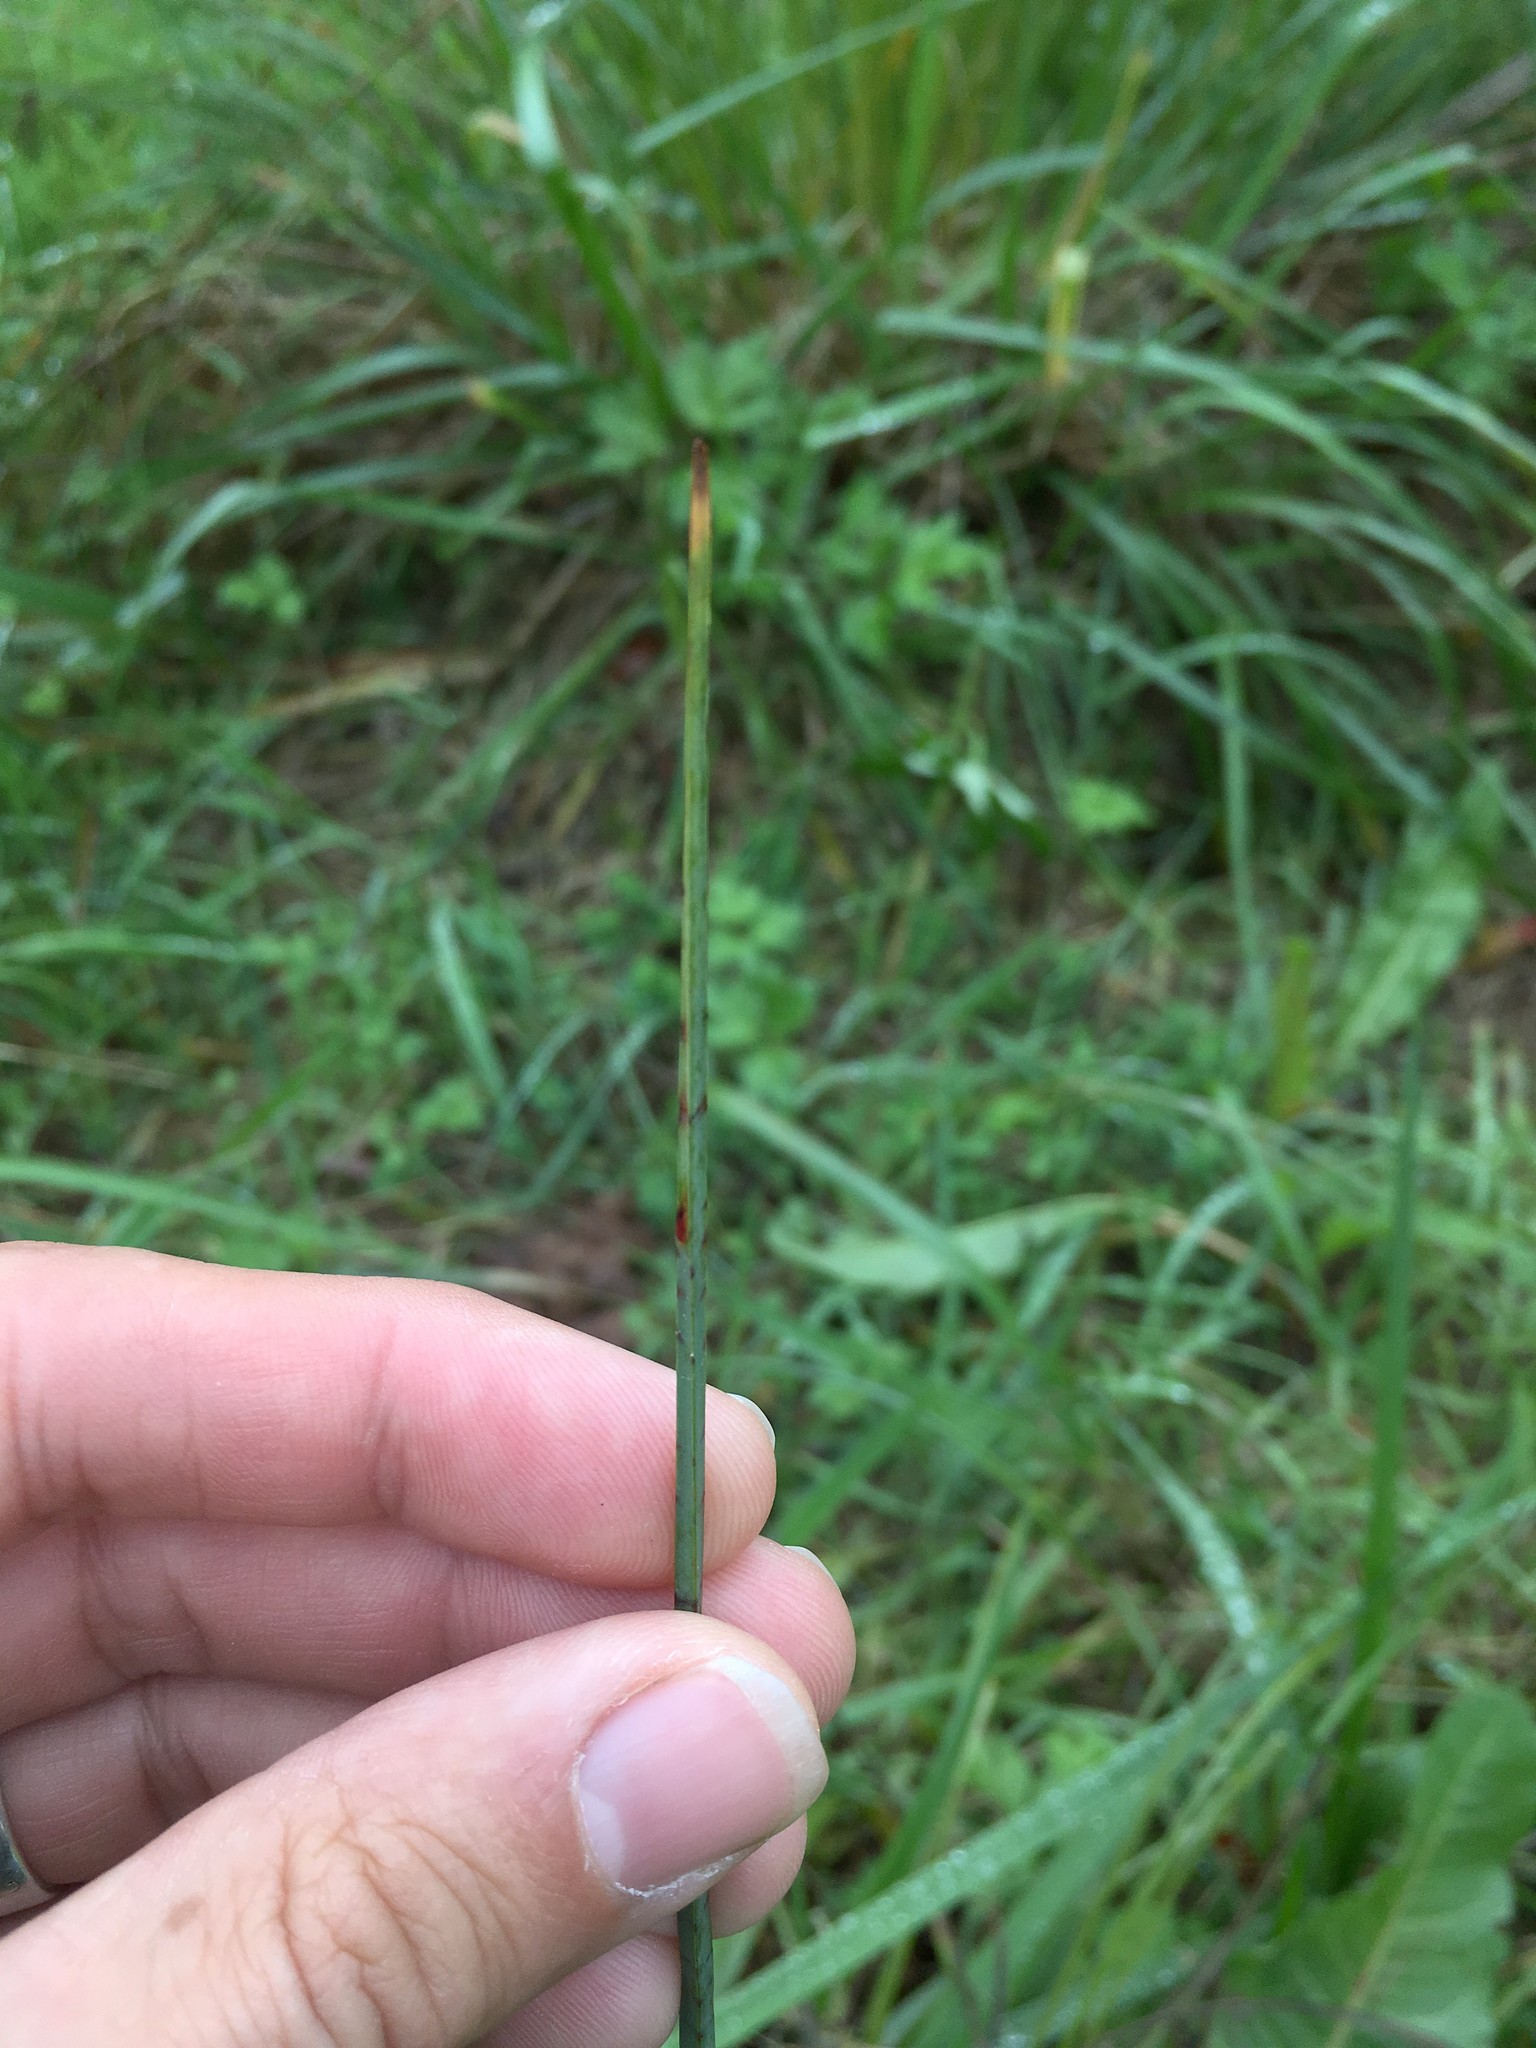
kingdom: Plantae
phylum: Tracheophyta
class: Liliopsida
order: Poales
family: Cyperaceae
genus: Schoenoplectus
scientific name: Schoenoplectus pungens
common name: Sharp club-rush
